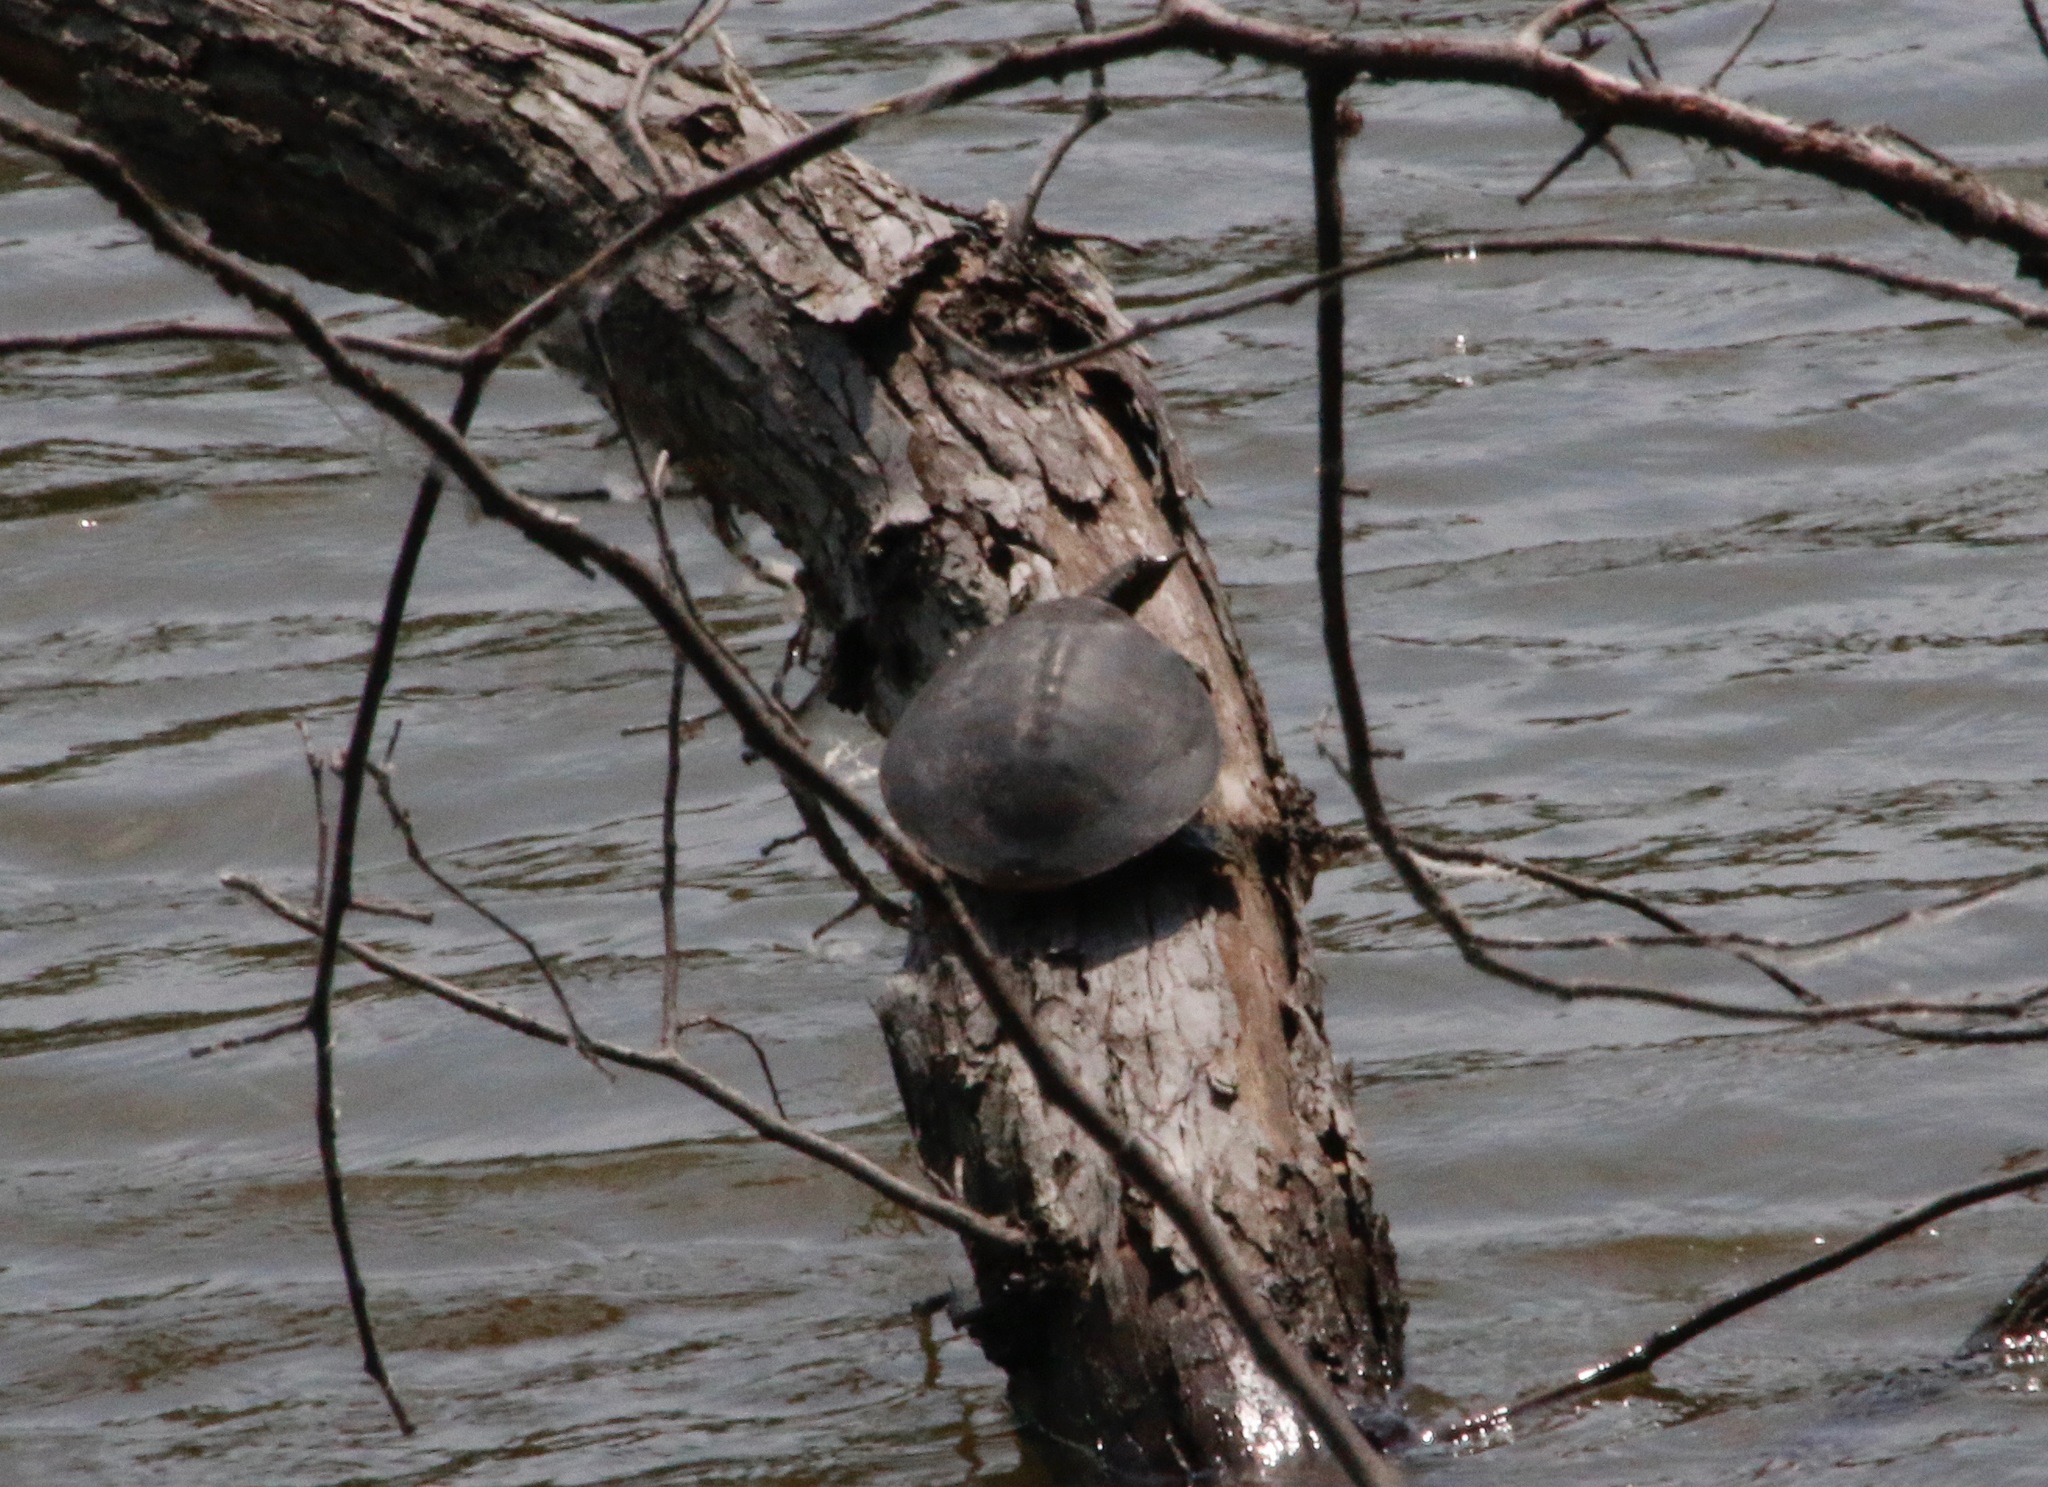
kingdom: Animalia
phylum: Chordata
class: Testudines
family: Trionychidae
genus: Apalone
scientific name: Apalone spinifera
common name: Spiny softshell turtle
